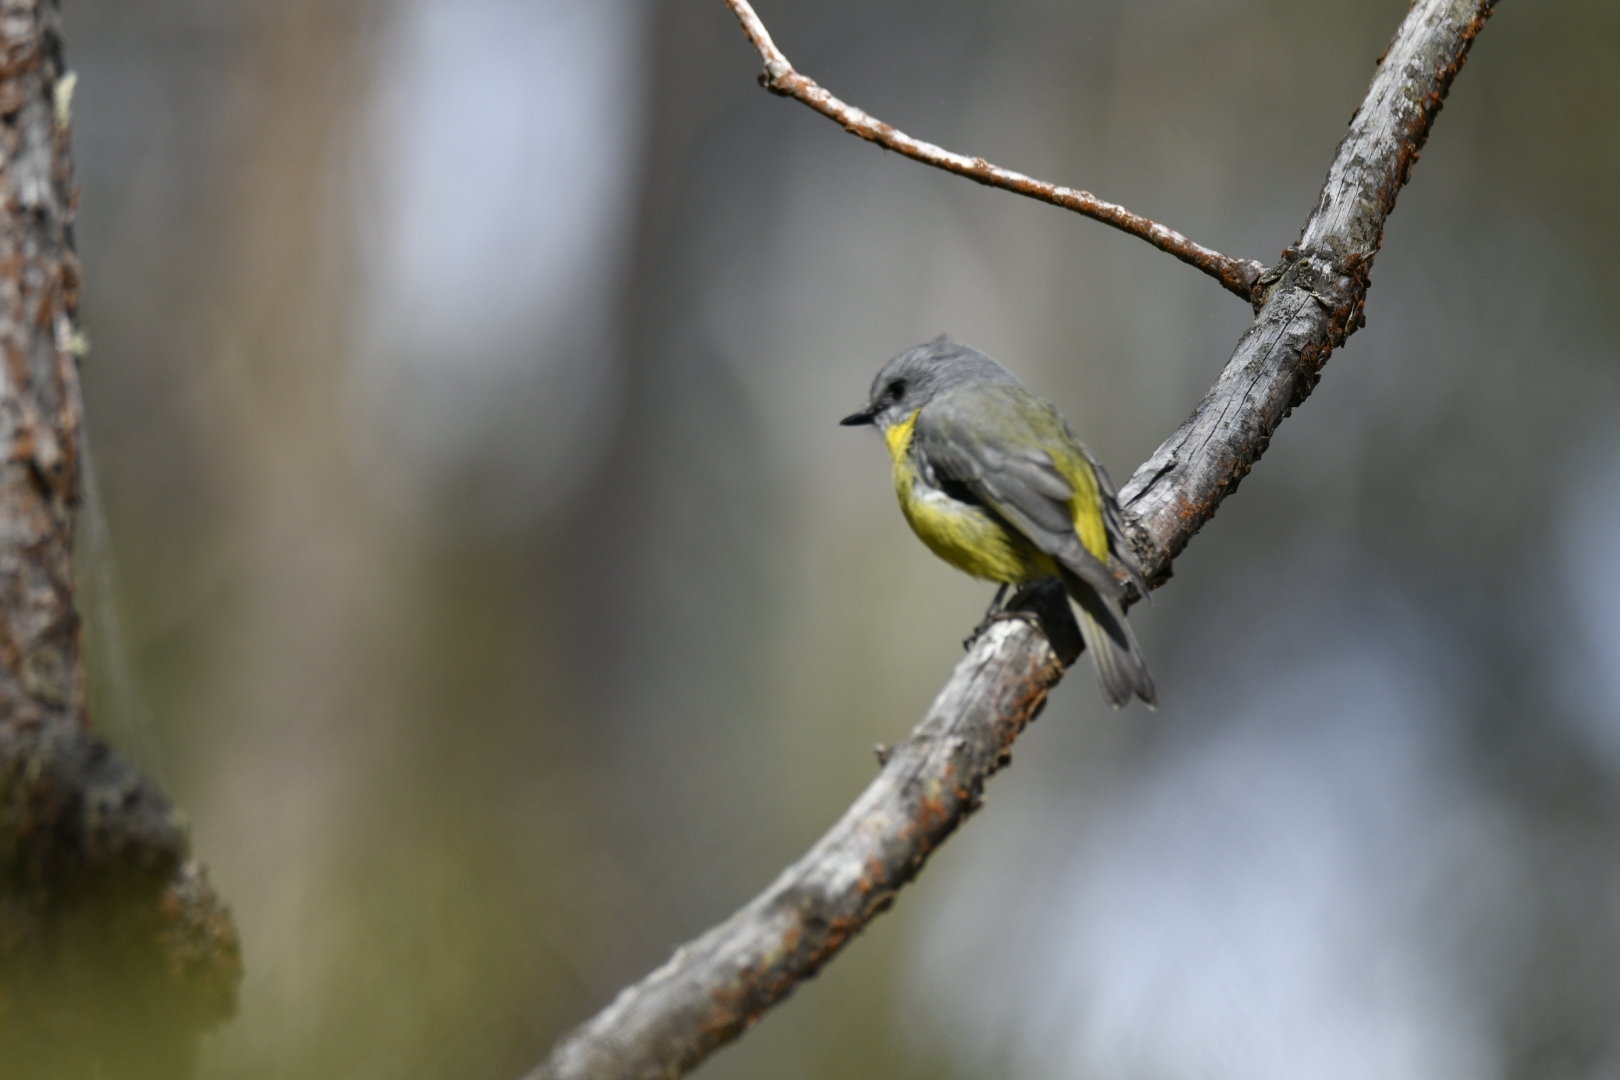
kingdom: Animalia
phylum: Chordata
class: Aves
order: Passeriformes
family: Petroicidae
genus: Eopsaltria
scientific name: Eopsaltria australis
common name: Eastern yellow robin
